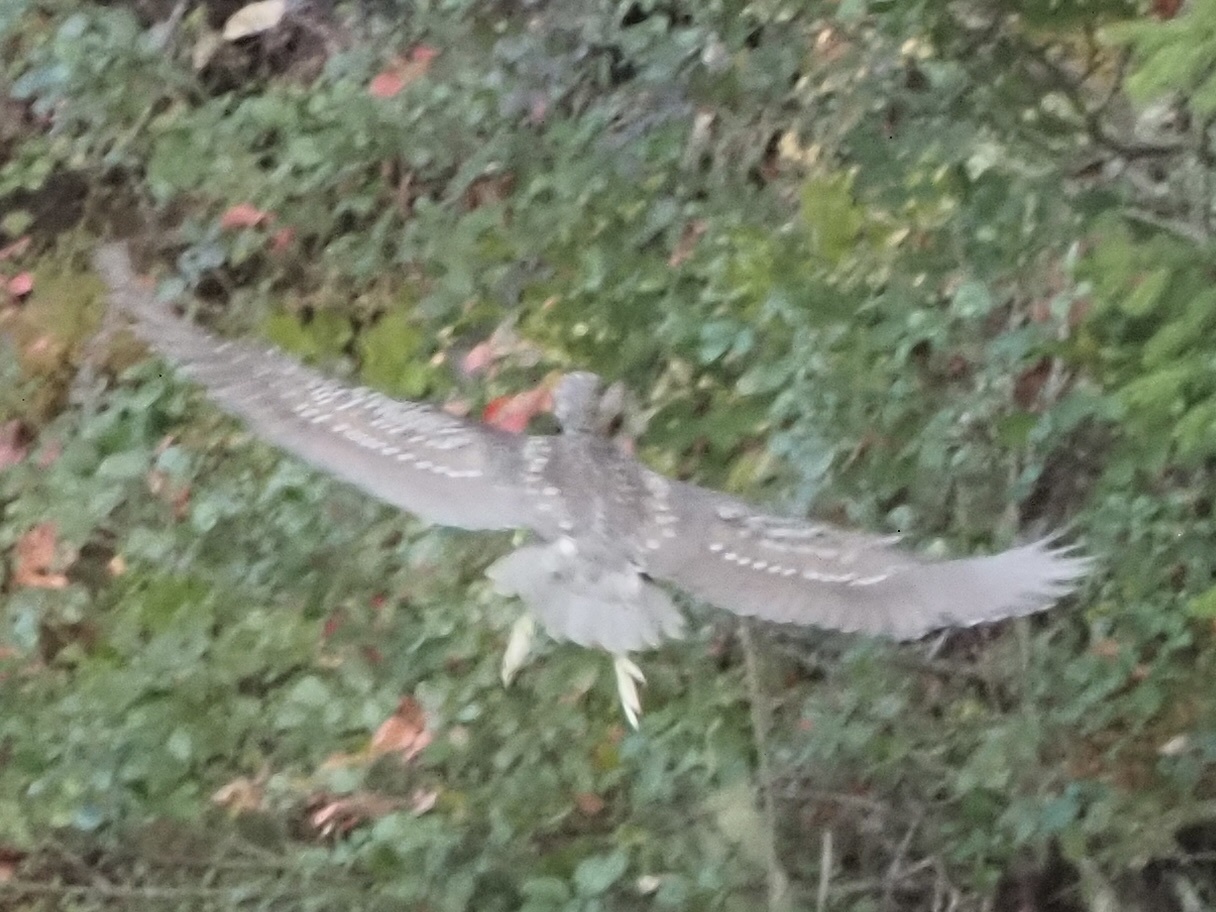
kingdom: Animalia
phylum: Chordata
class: Aves
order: Pelecaniformes
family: Ardeidae
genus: Nycticorax
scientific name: Nycticorax nycticorax
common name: Black-crowned night heron
